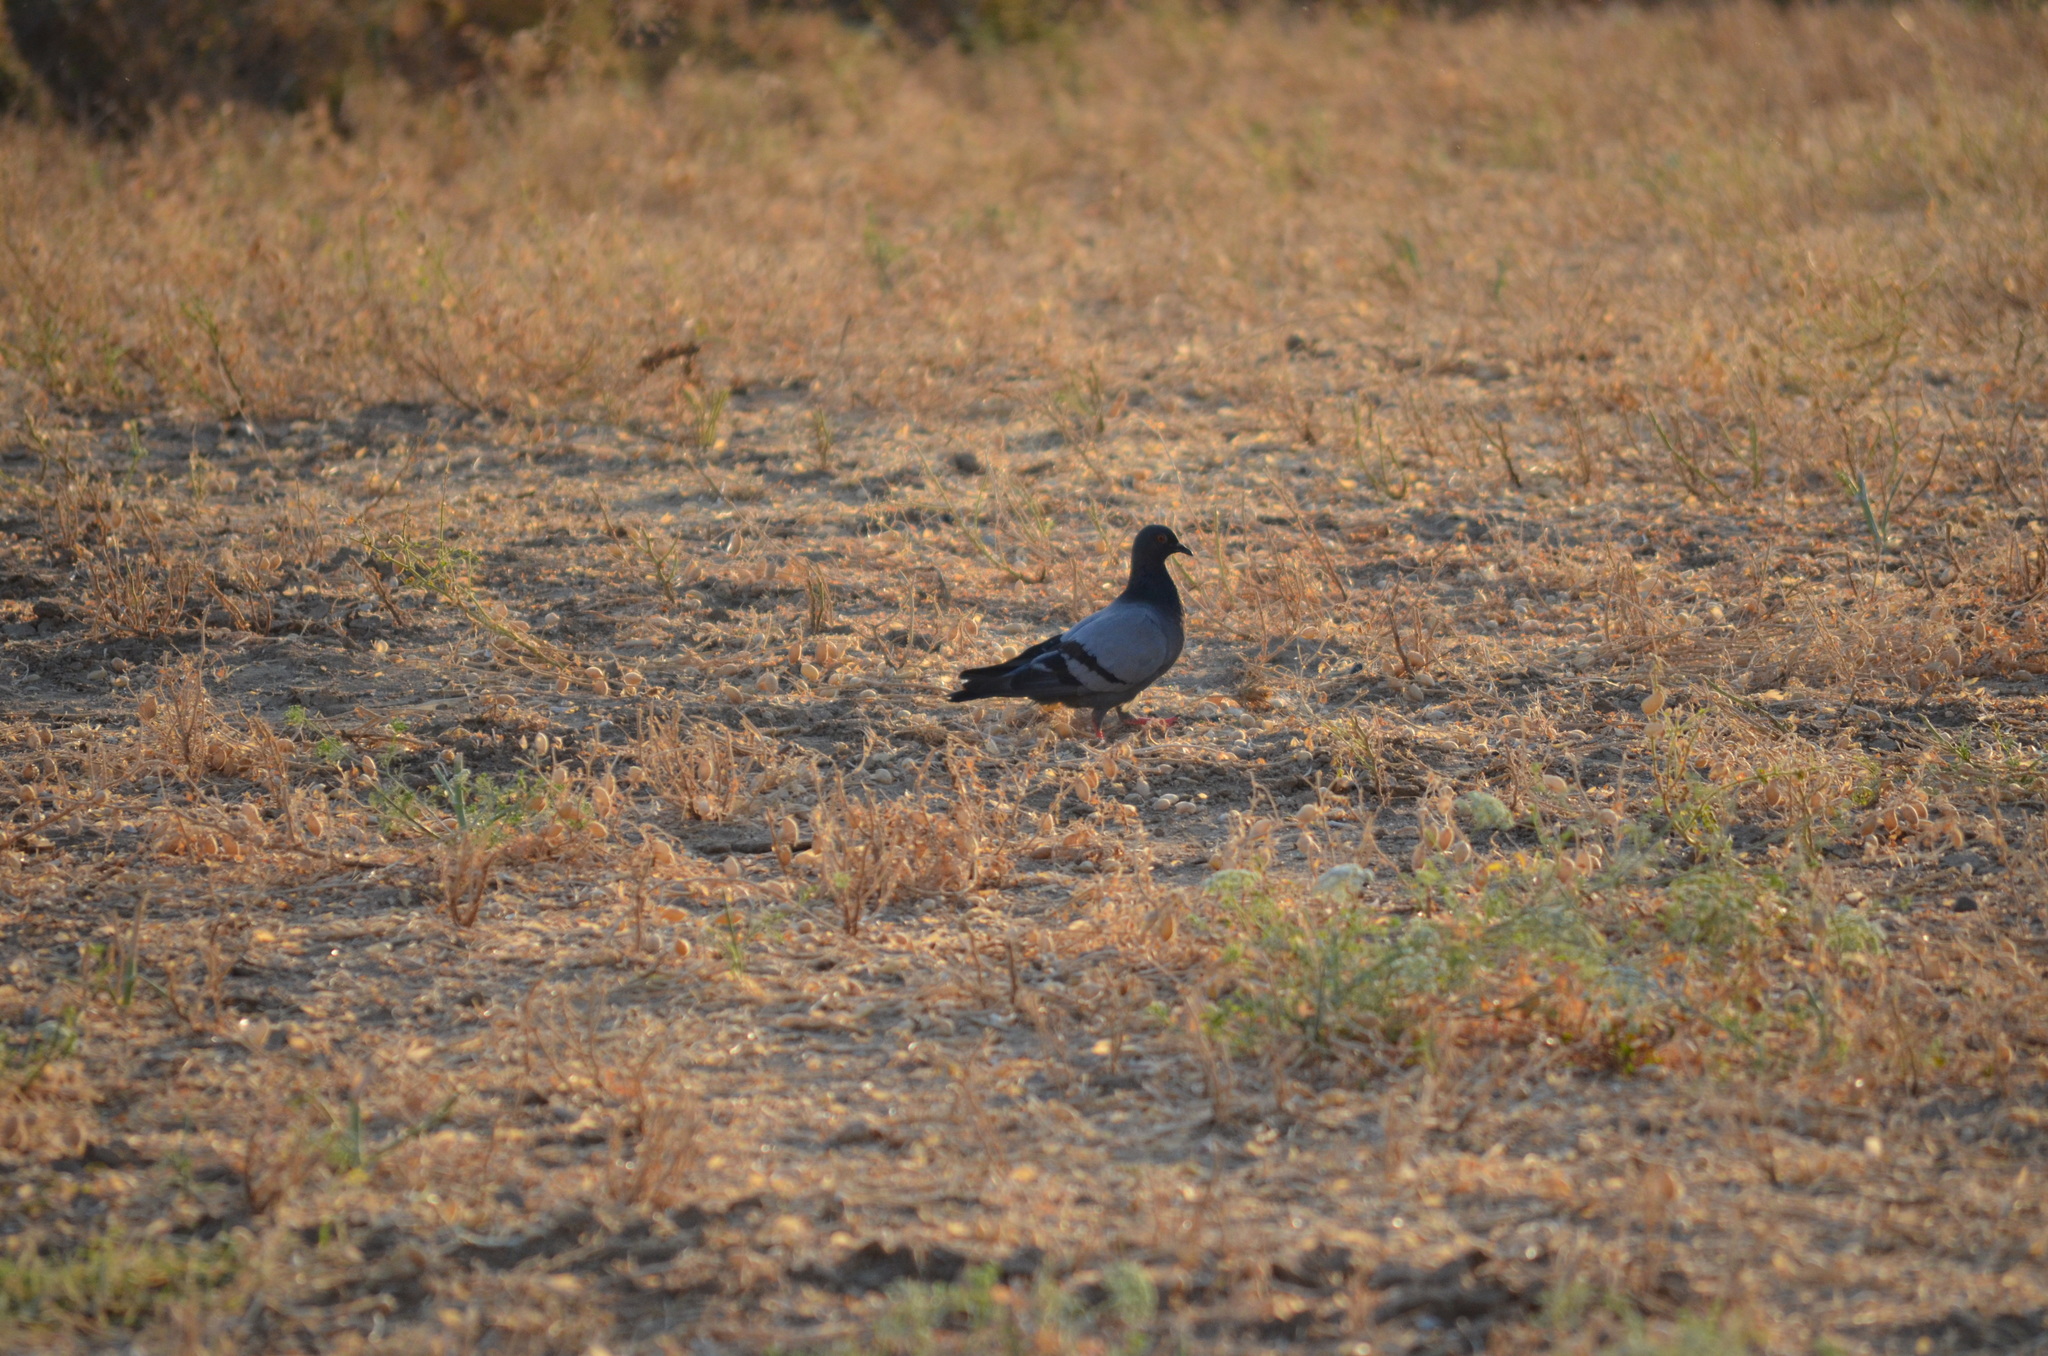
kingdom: Animalia
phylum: Chordata
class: Aves
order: Columbiformes
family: Columbidae
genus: Columba
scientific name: Columba livia
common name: Rock pigeon
